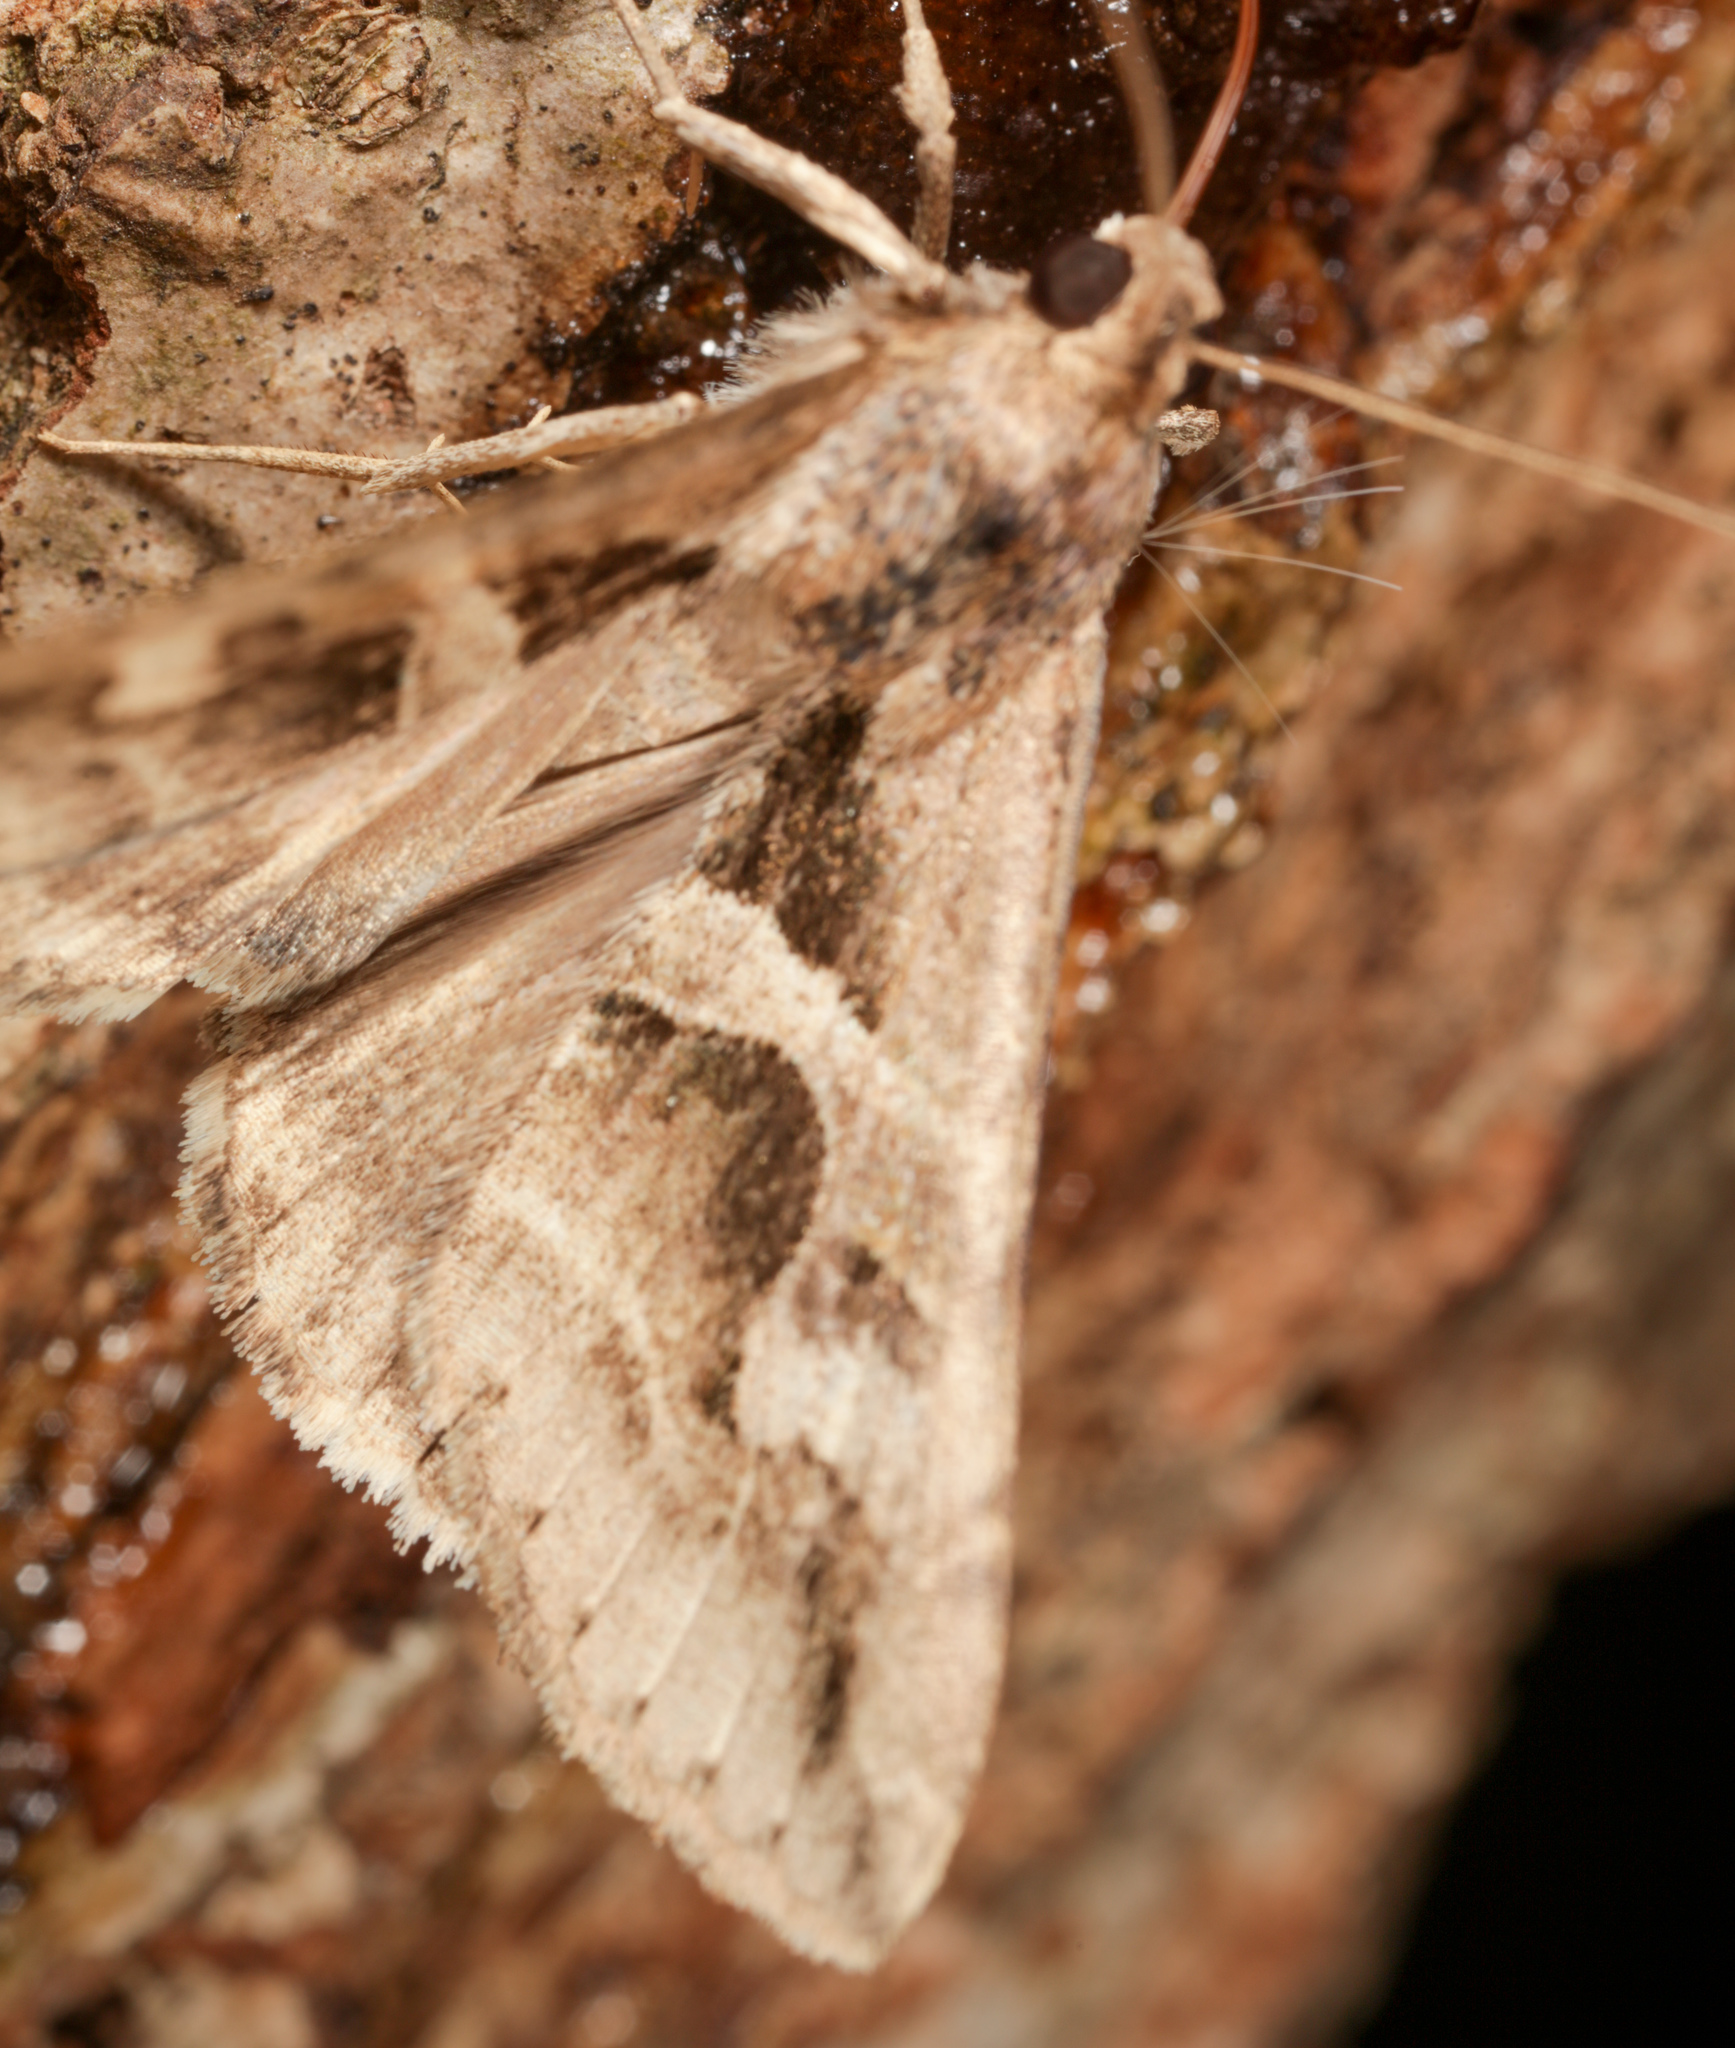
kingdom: Animalia
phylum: Arthropoda
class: Insecta
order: Lepidoptera
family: Erebidae
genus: Melipotis
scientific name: Melipotis cellaris
